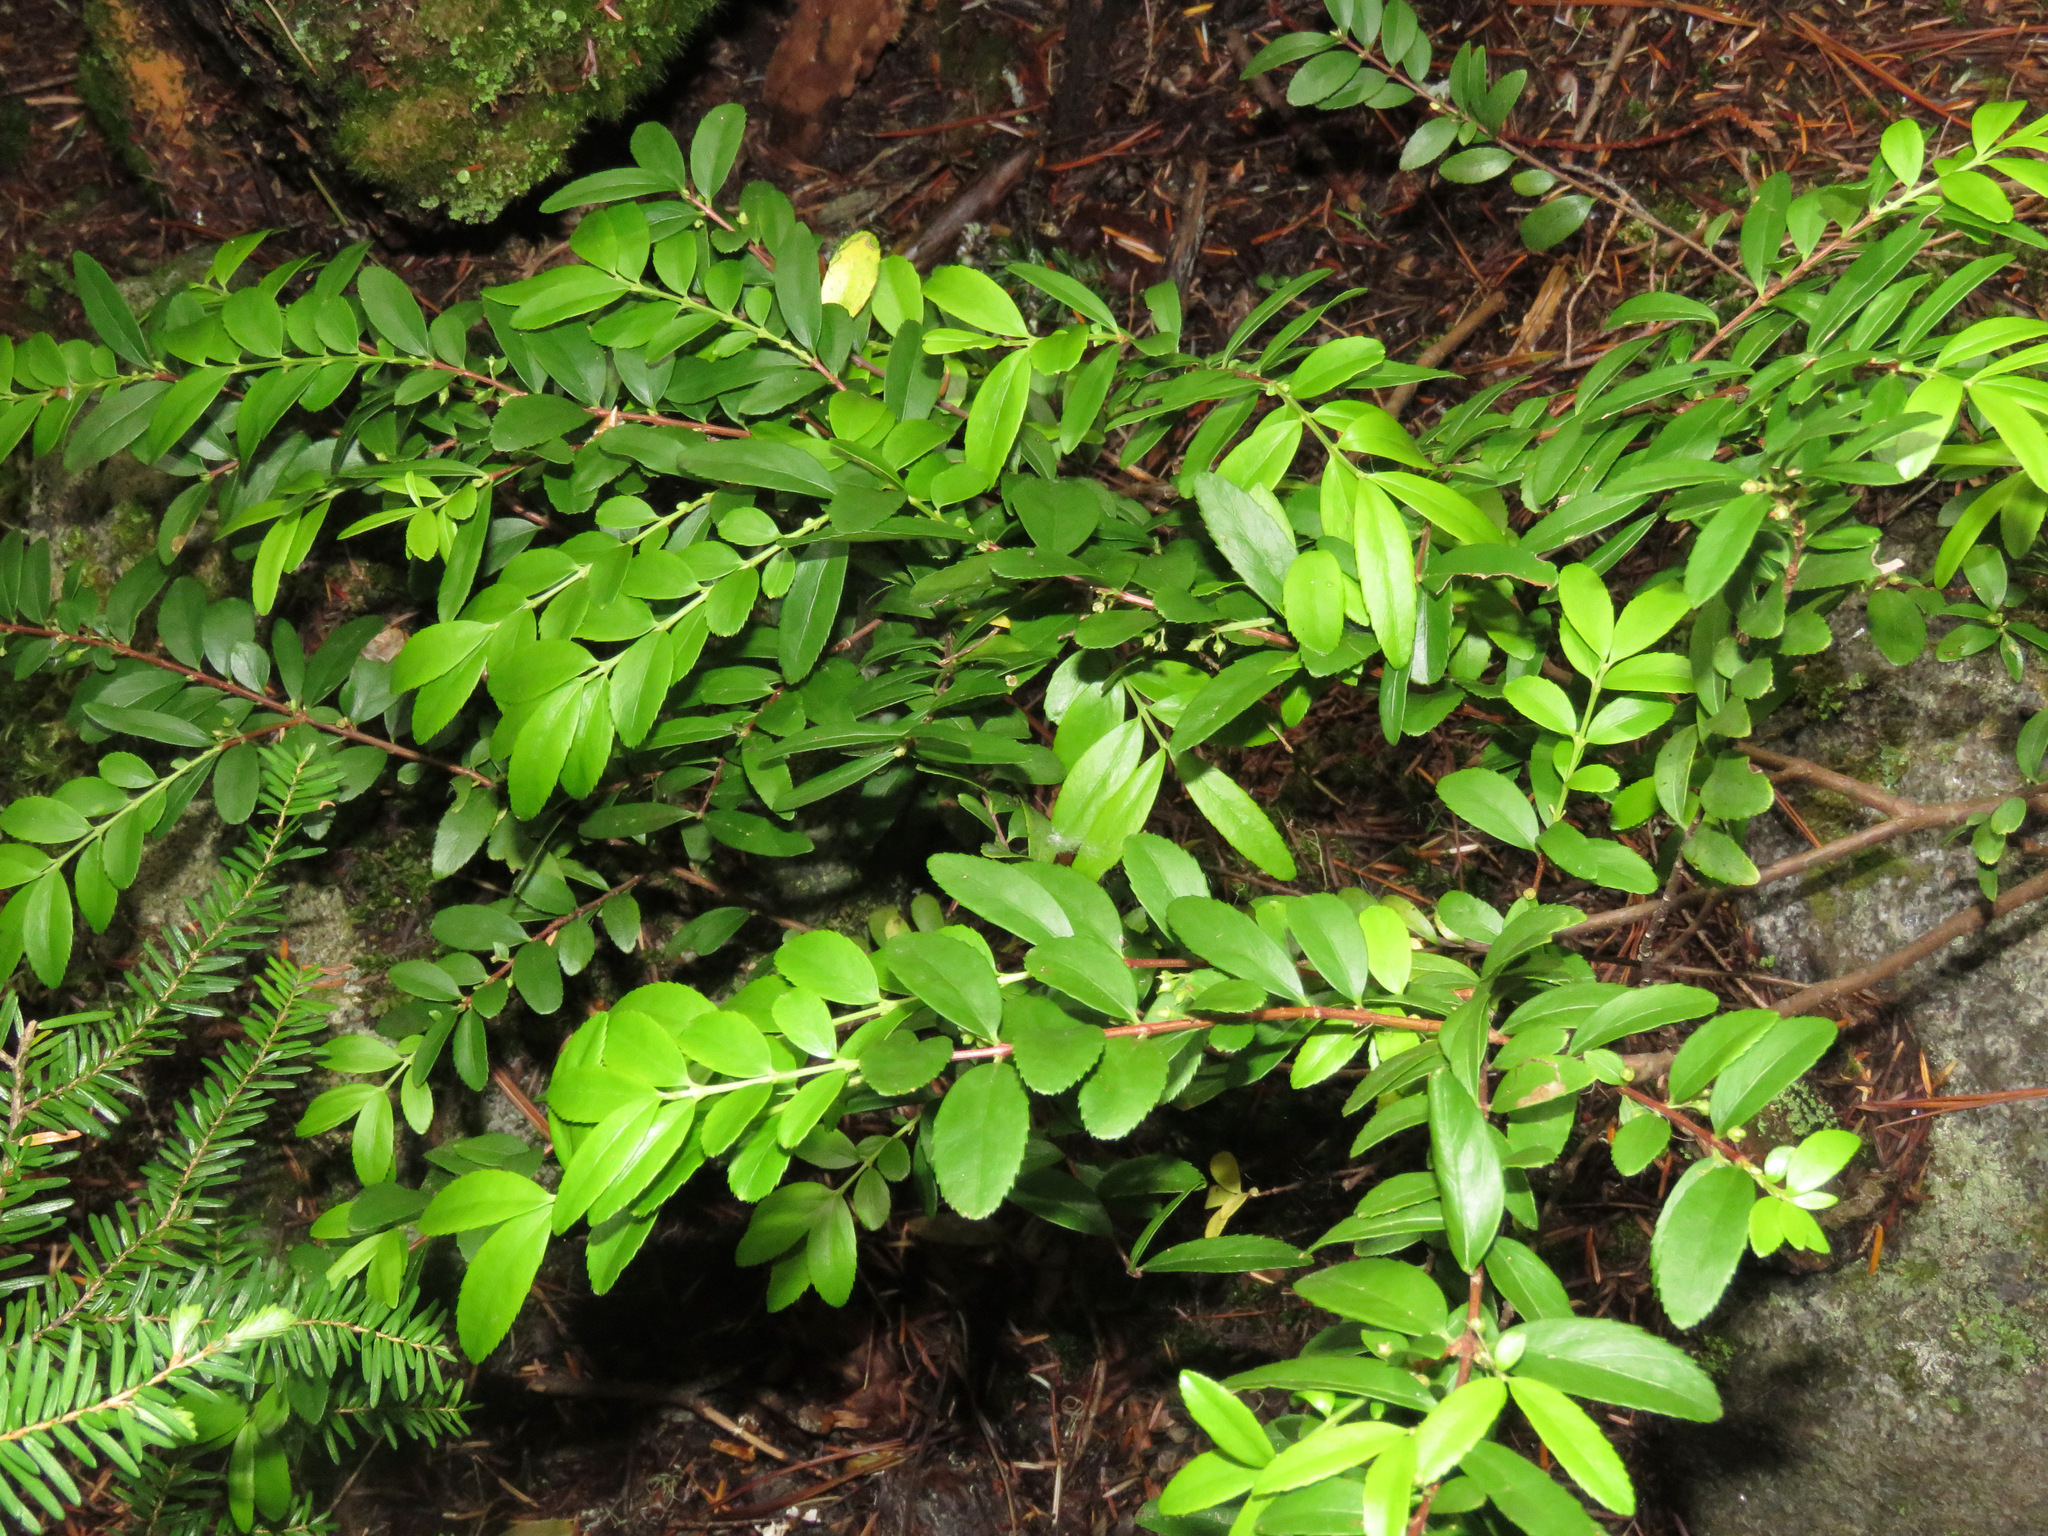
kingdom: Plantae
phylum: Tracheophyta
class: Magnoliopsida
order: Celastrales
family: Celastraceae
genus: Paxistima
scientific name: Paxistima myrsinites
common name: Mountain-lover
